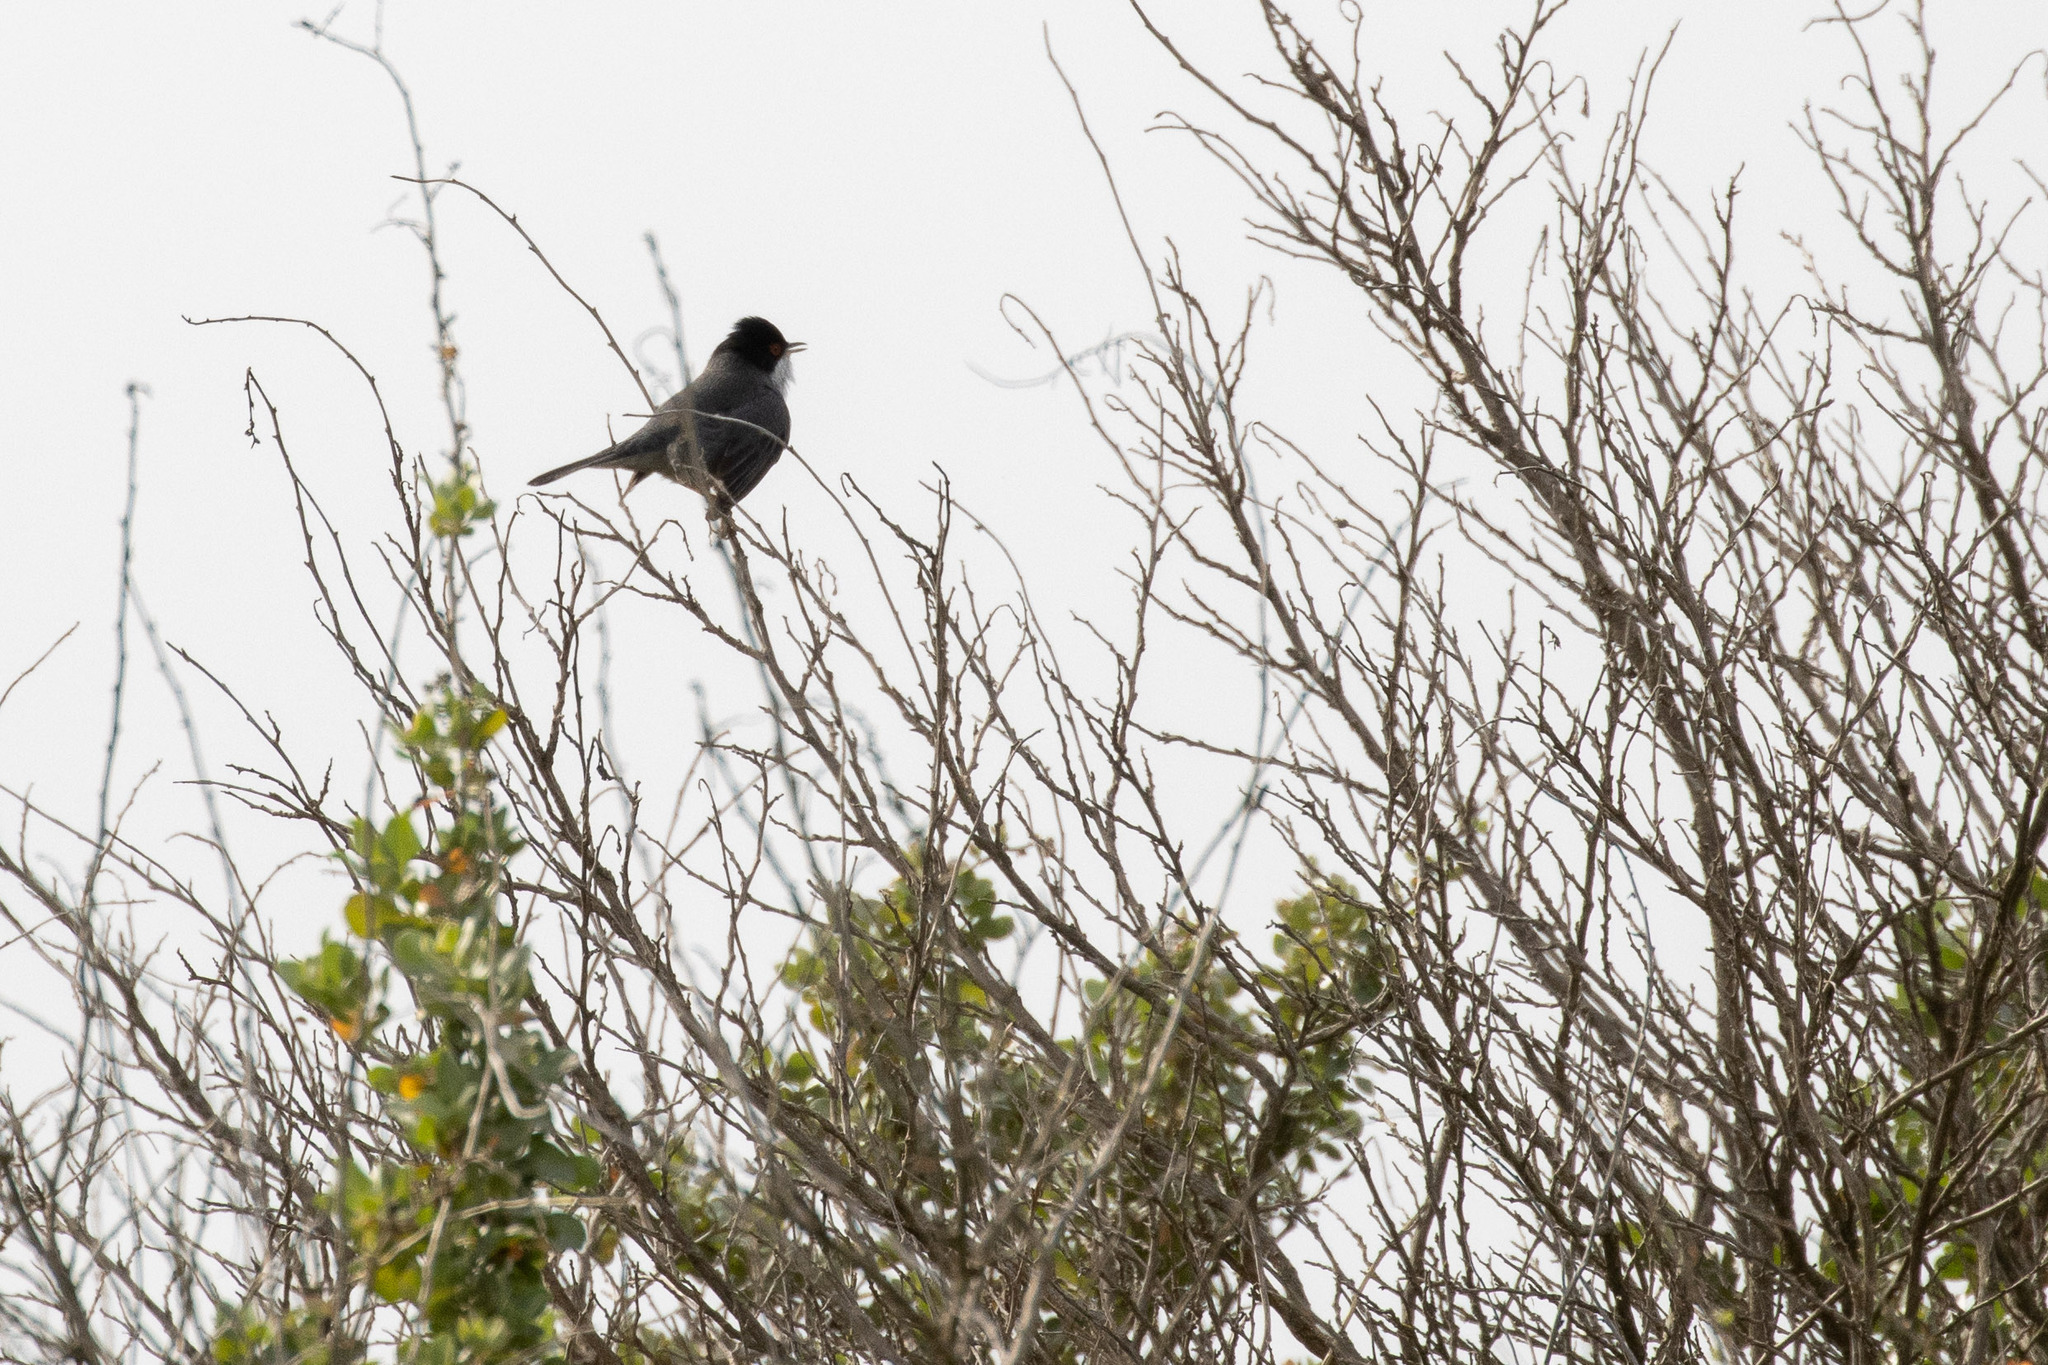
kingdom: Animalia
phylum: Chordata
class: Aves
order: Passeriformes
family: Sylviidae
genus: Curruca
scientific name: Curruca melanocephala
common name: Sardinian warbler
